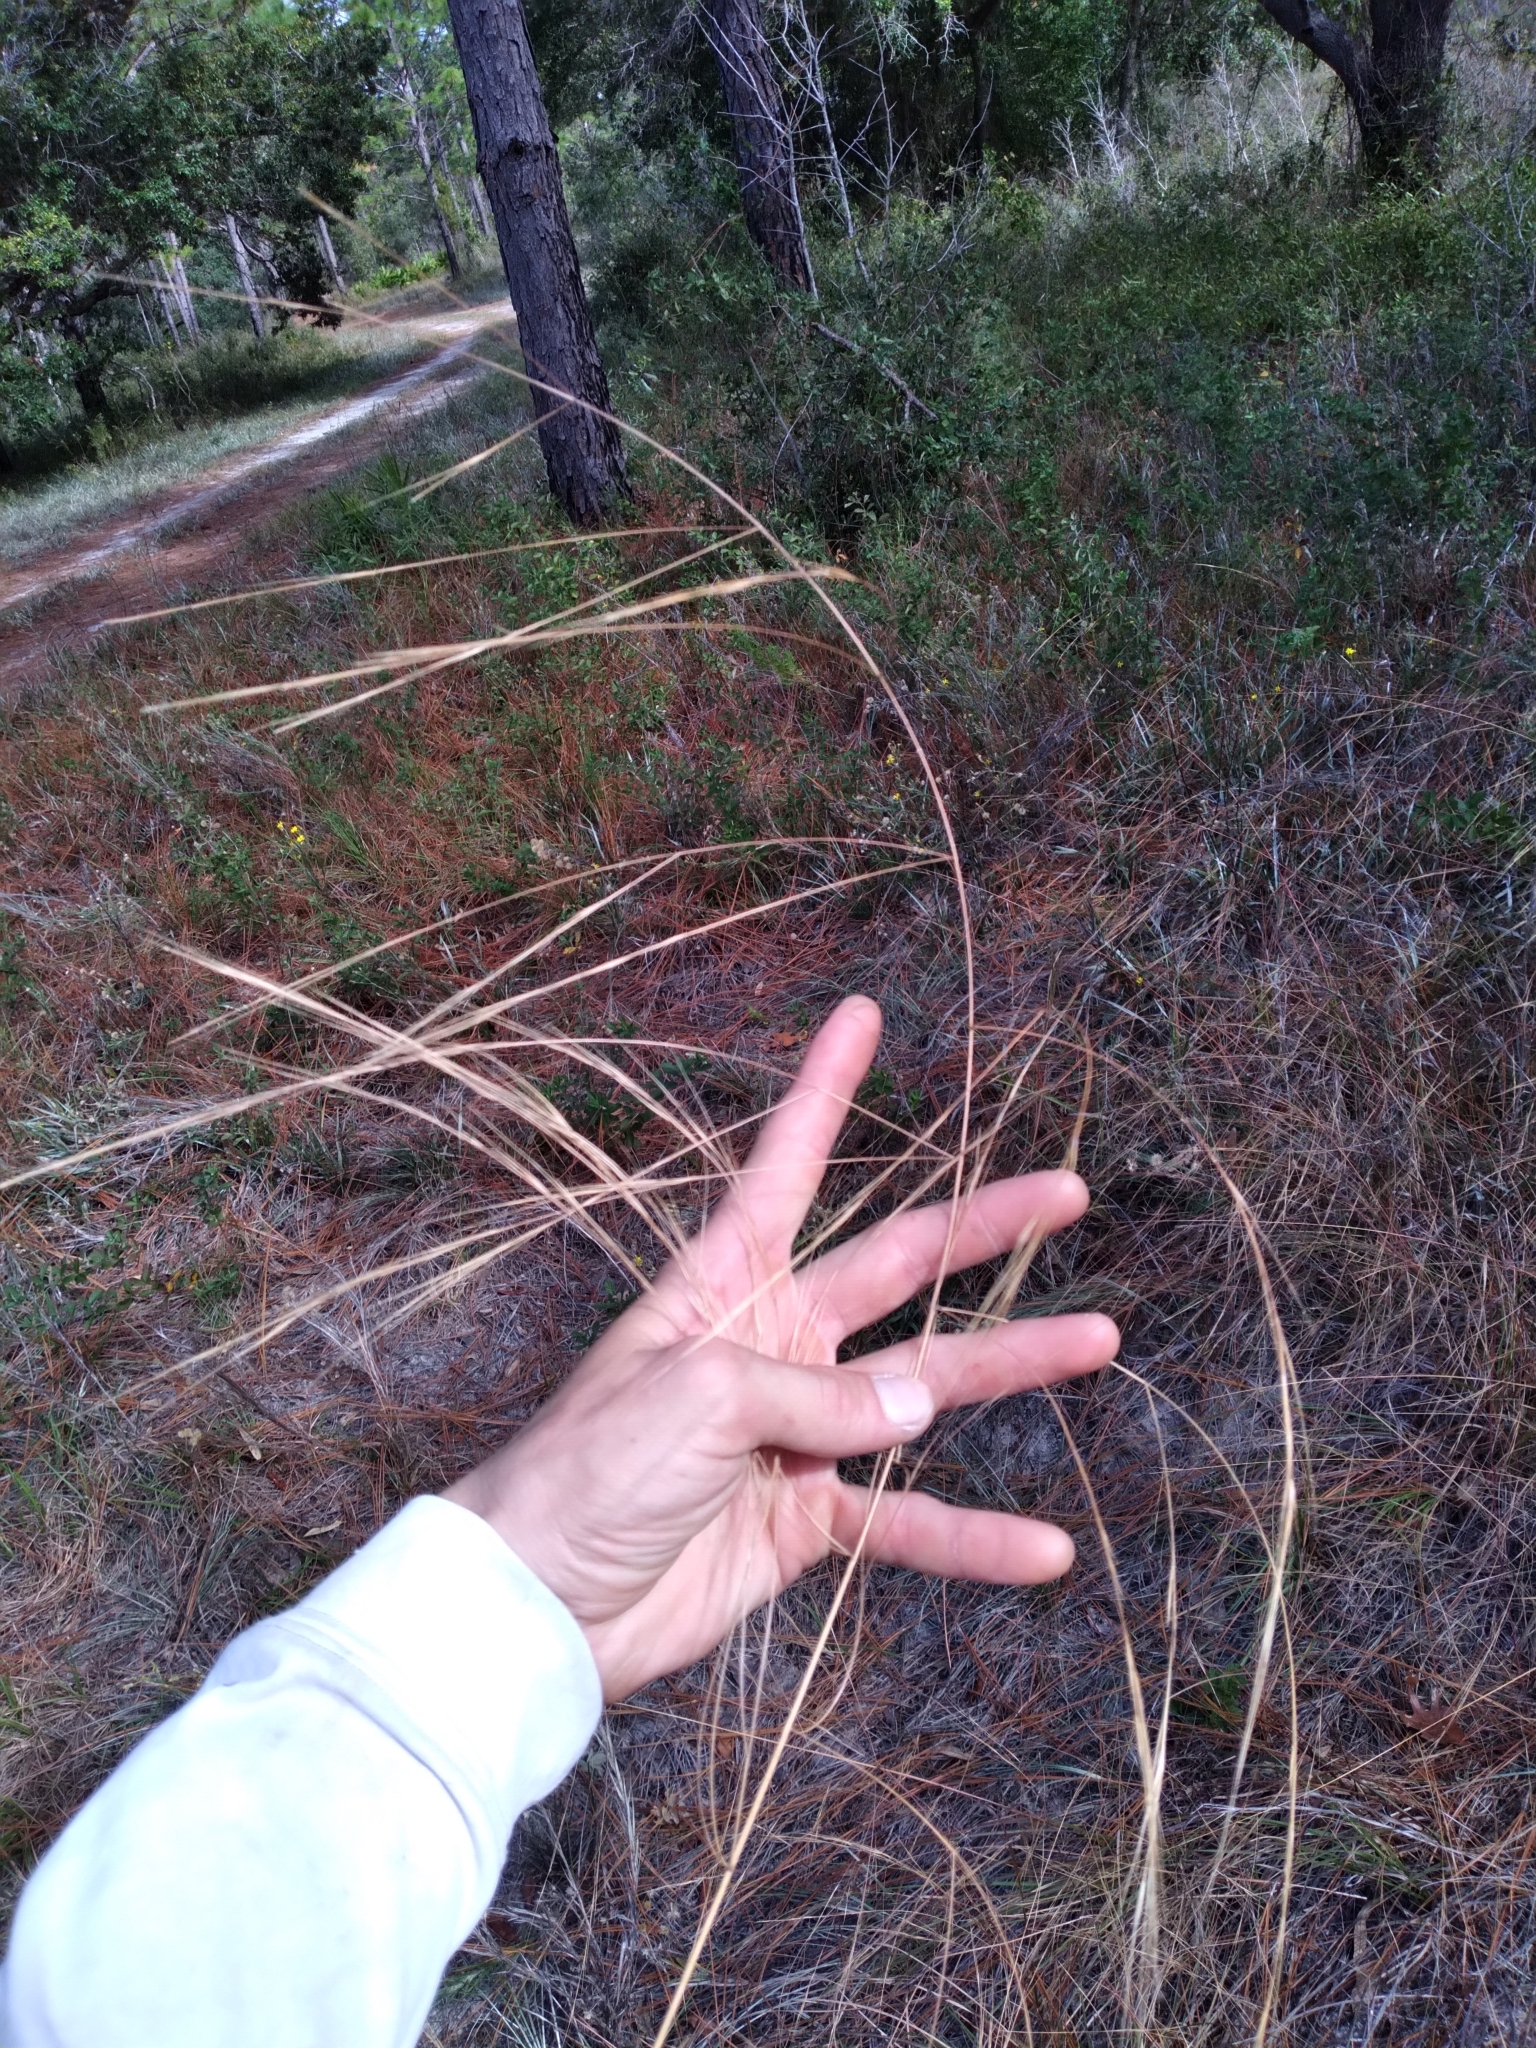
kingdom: Plantae
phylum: Tracheophyta
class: Liliopsida
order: Poales
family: Poaceae
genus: Aristida
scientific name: Aristida patula
